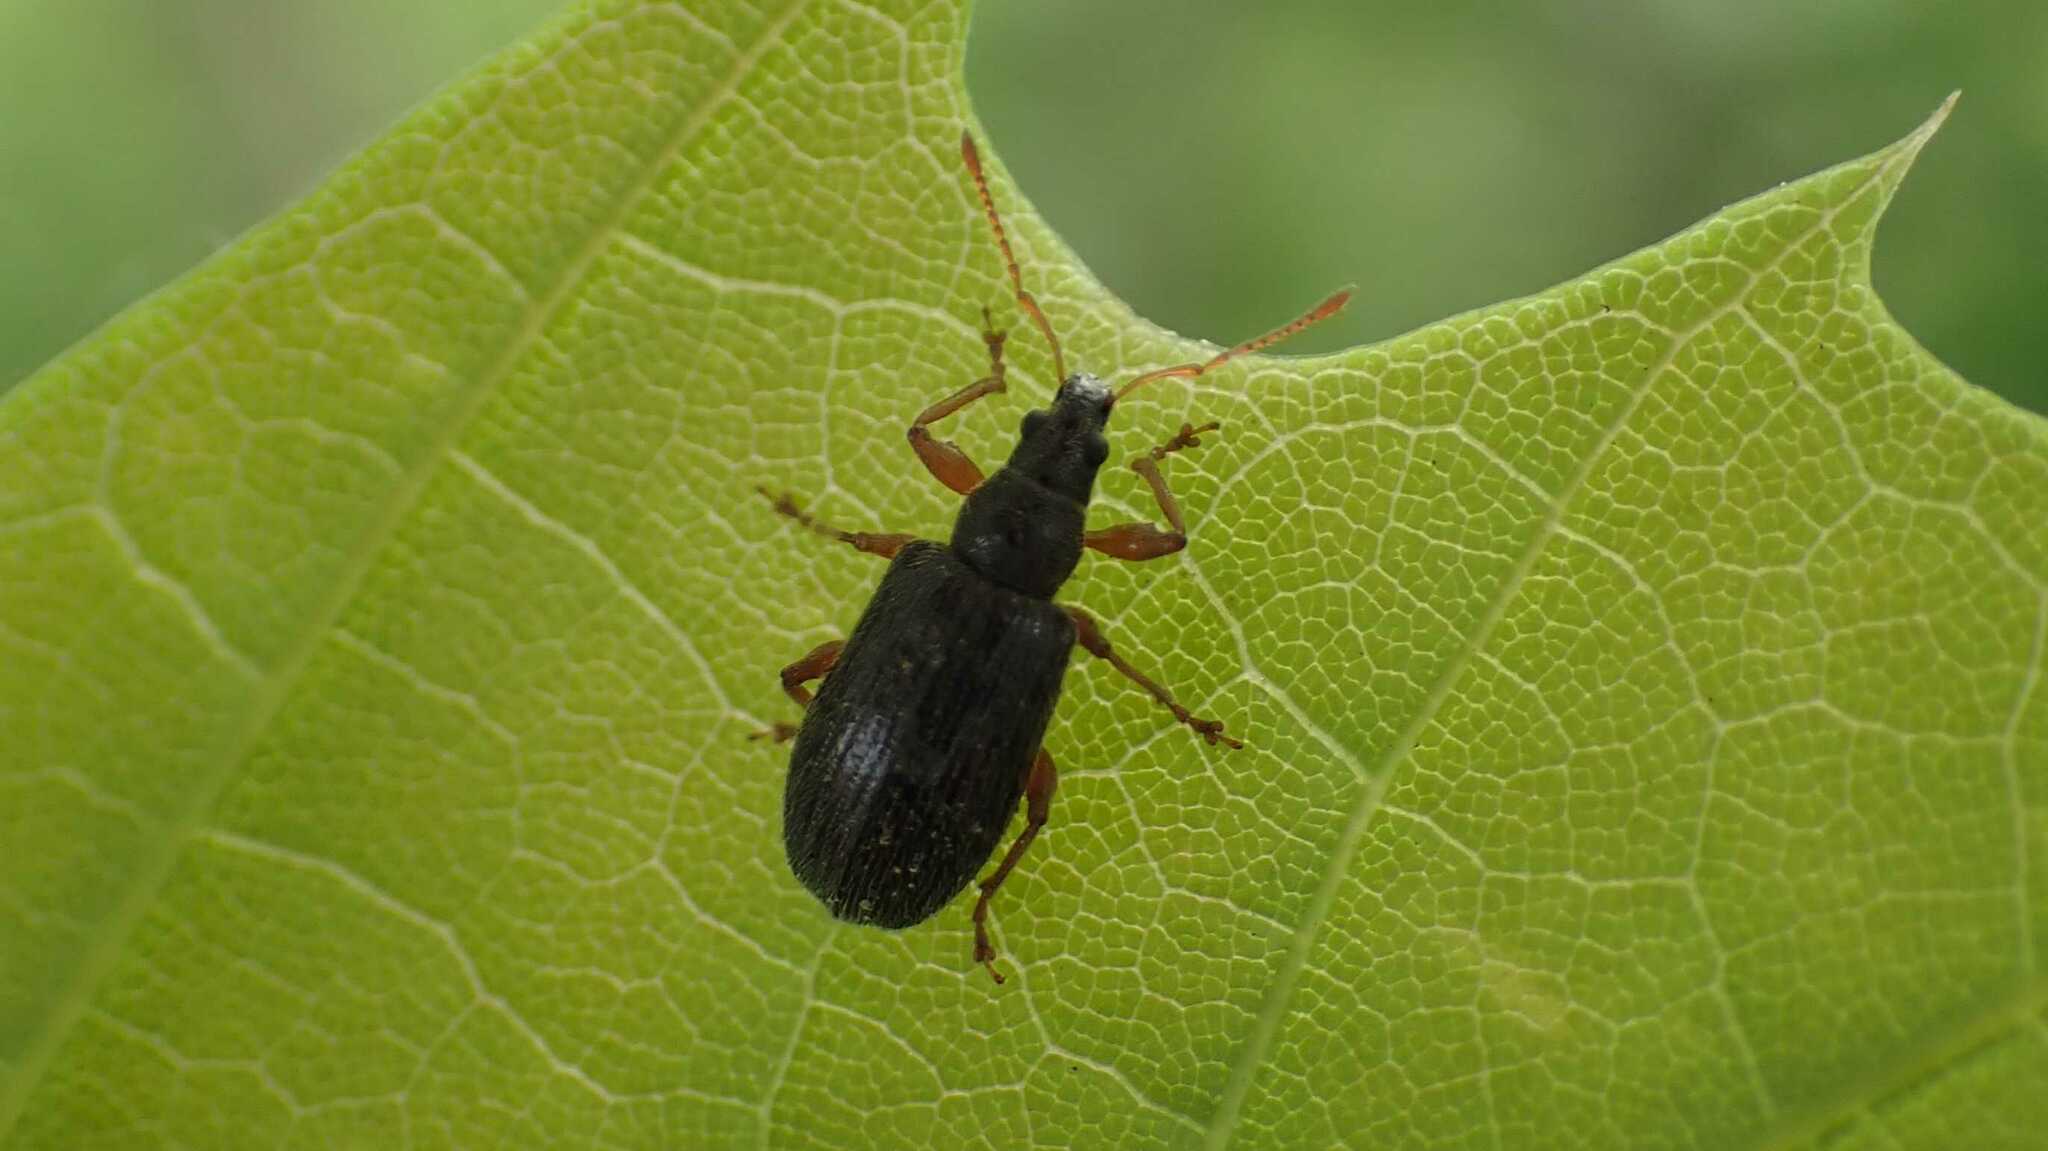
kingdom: Animalia
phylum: Arthropoda
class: Insecta
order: Coleoptera
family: Curculionidae
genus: Phyllobius
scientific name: Phyllobius oblongus
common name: Brown leaf weevil
